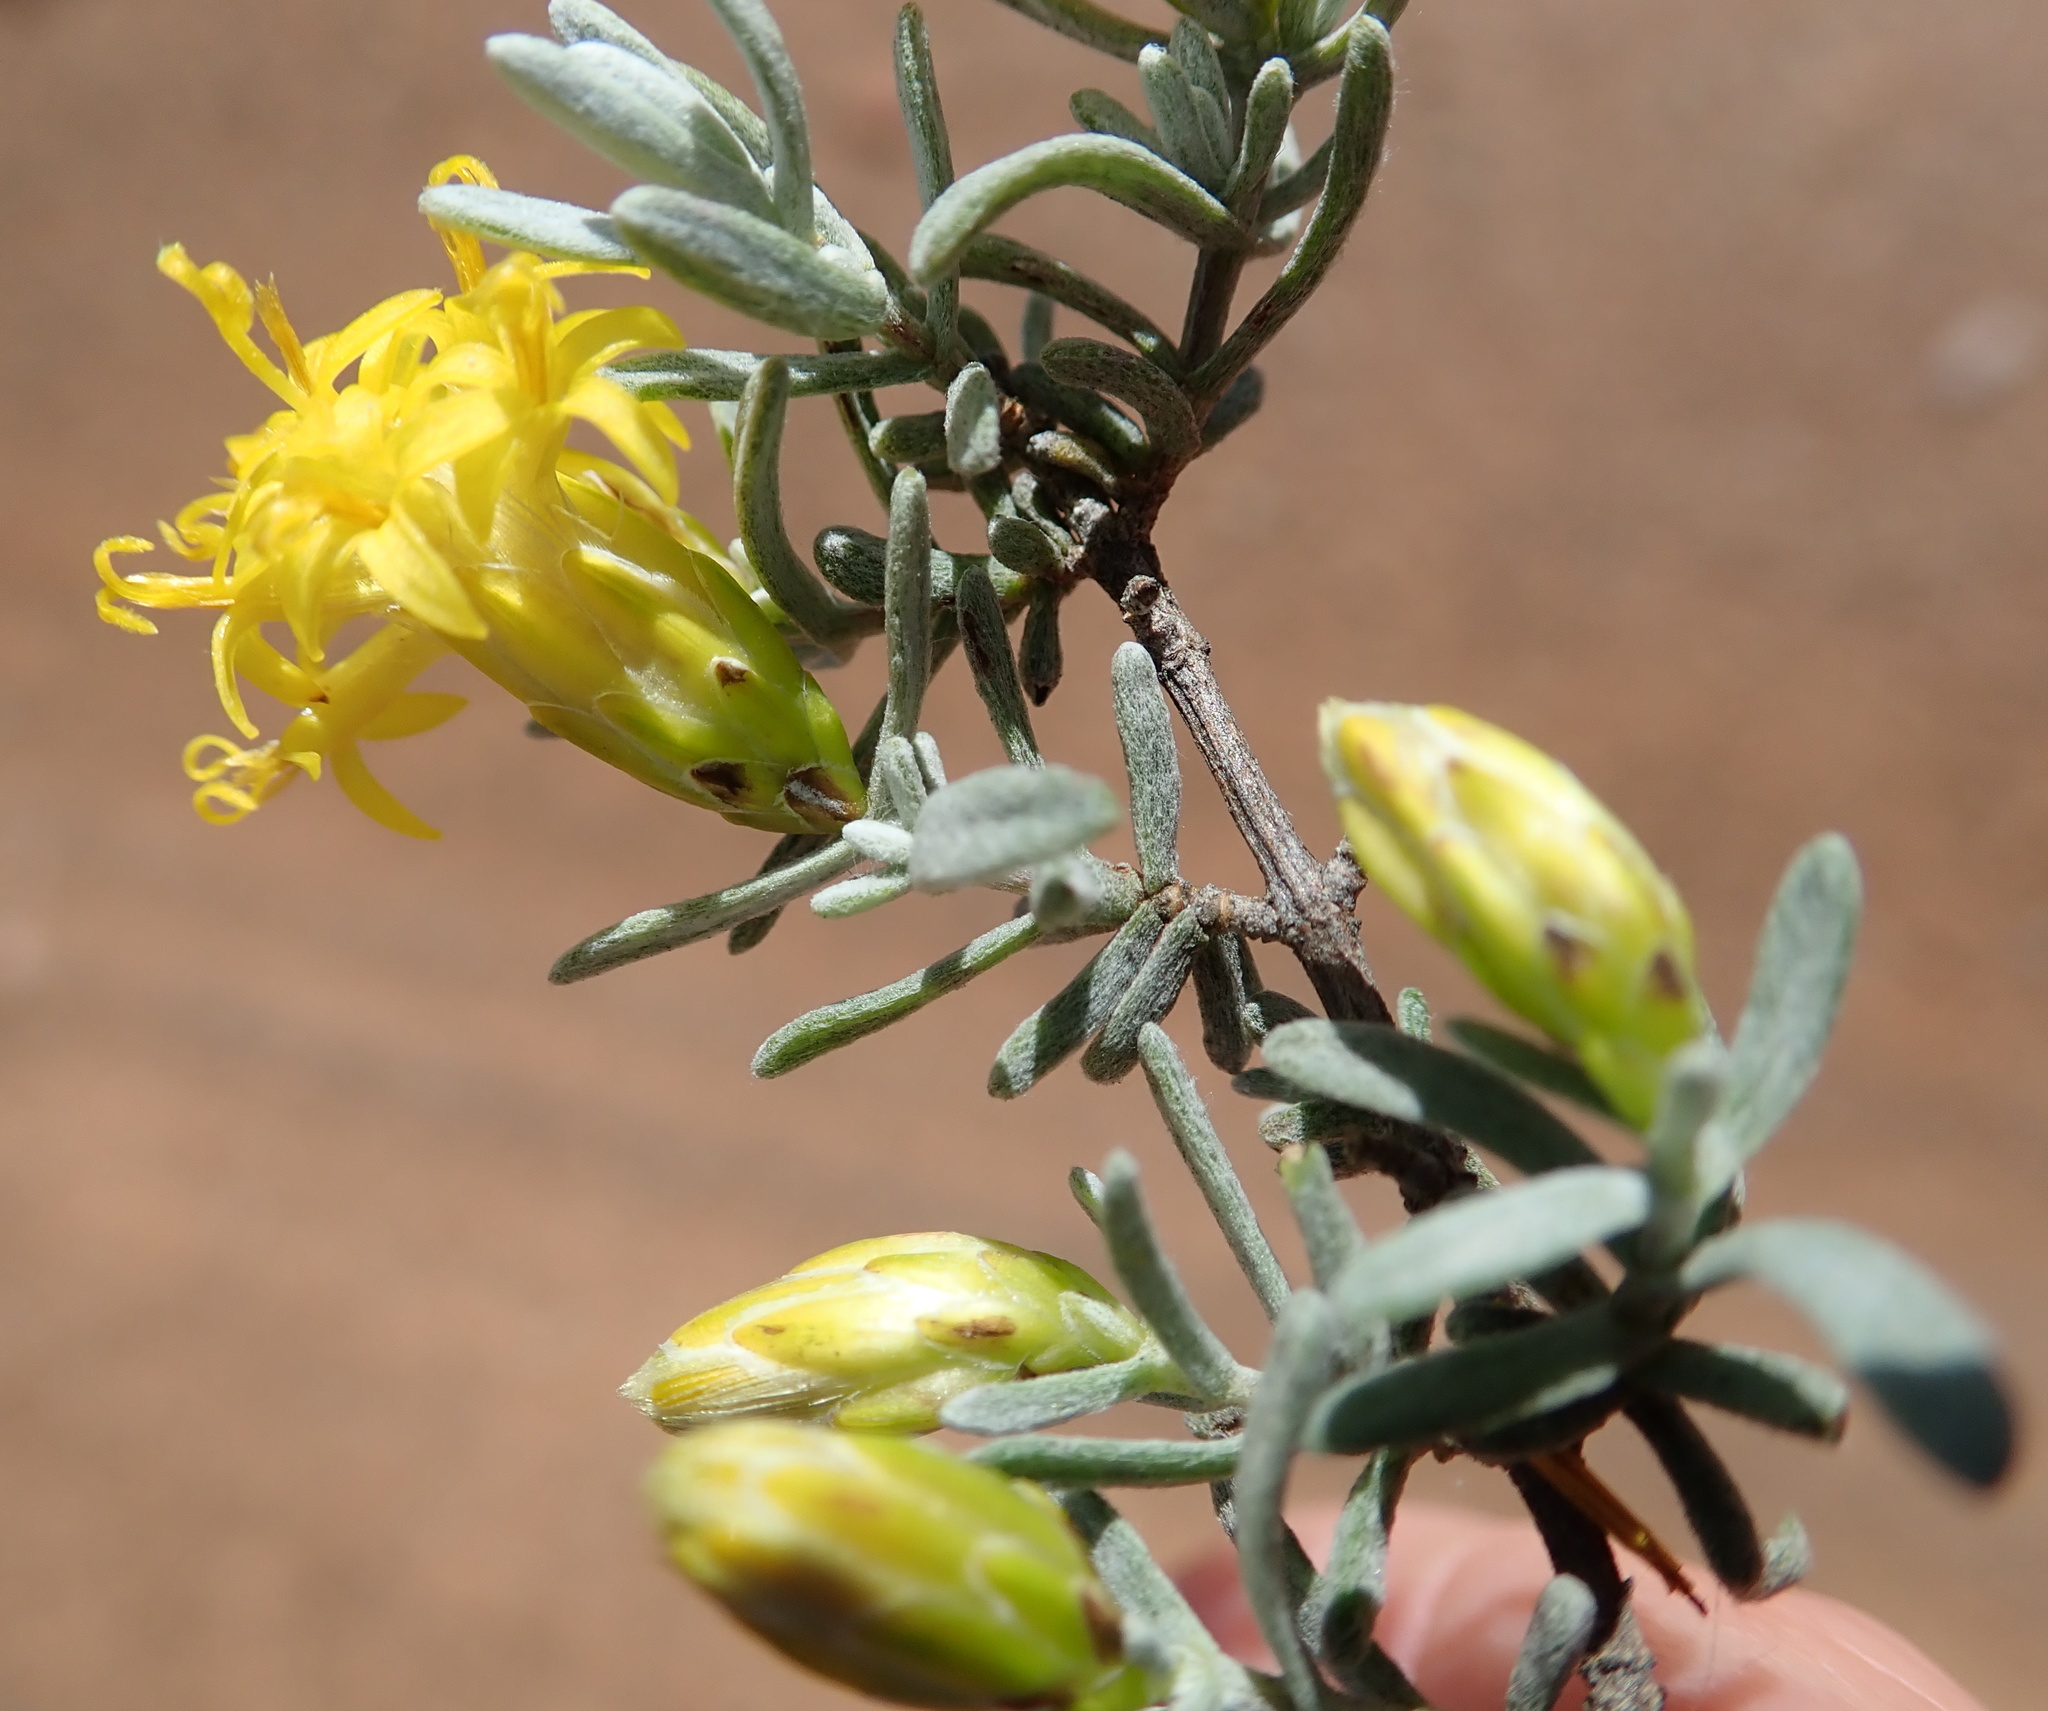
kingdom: Plantae
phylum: Tracheophyta
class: Magnoliopsida
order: Asterales
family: Asteraceae
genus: Pteronia
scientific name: Pteronia incana
